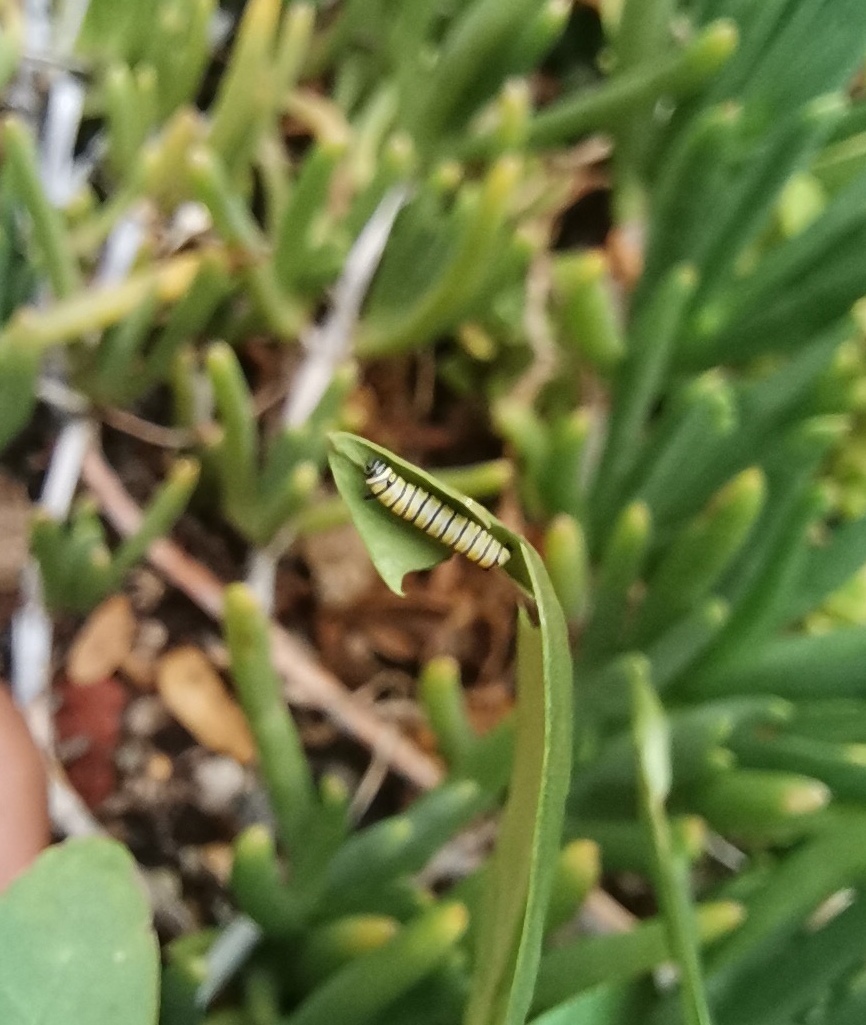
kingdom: Animalia
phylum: Arthropoda
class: Insecta
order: Lepidoptera
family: Nymphalidae
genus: Danaus
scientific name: Danaus plexippus
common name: Monarch
